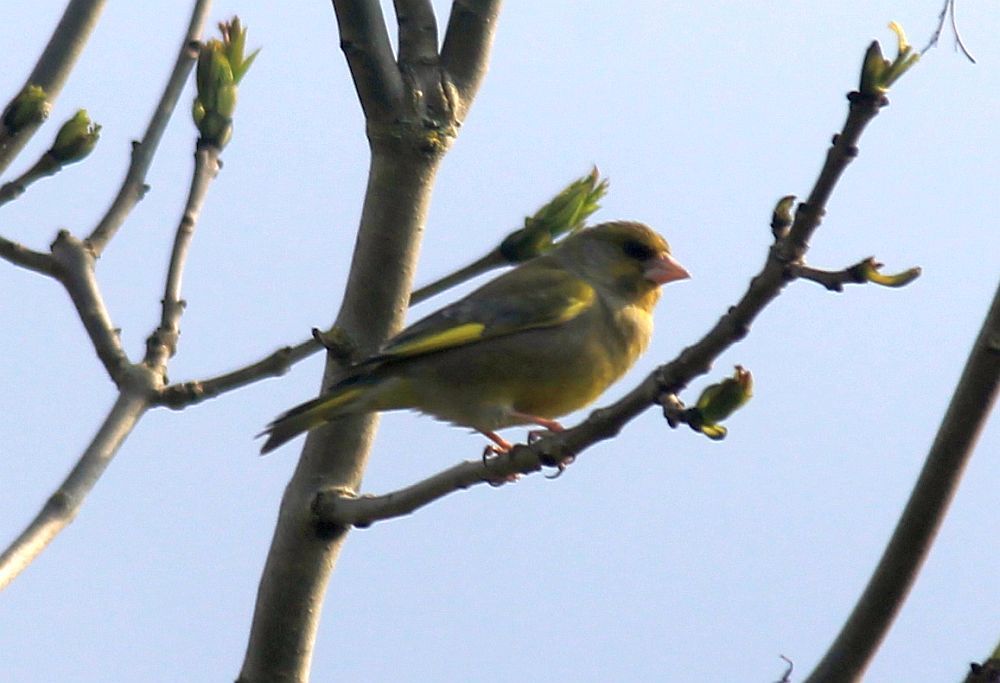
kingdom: Plantae
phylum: Tracheophyta
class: Liliopsida
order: Poales
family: Poaceae
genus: Chloris
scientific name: Chloris chloris
